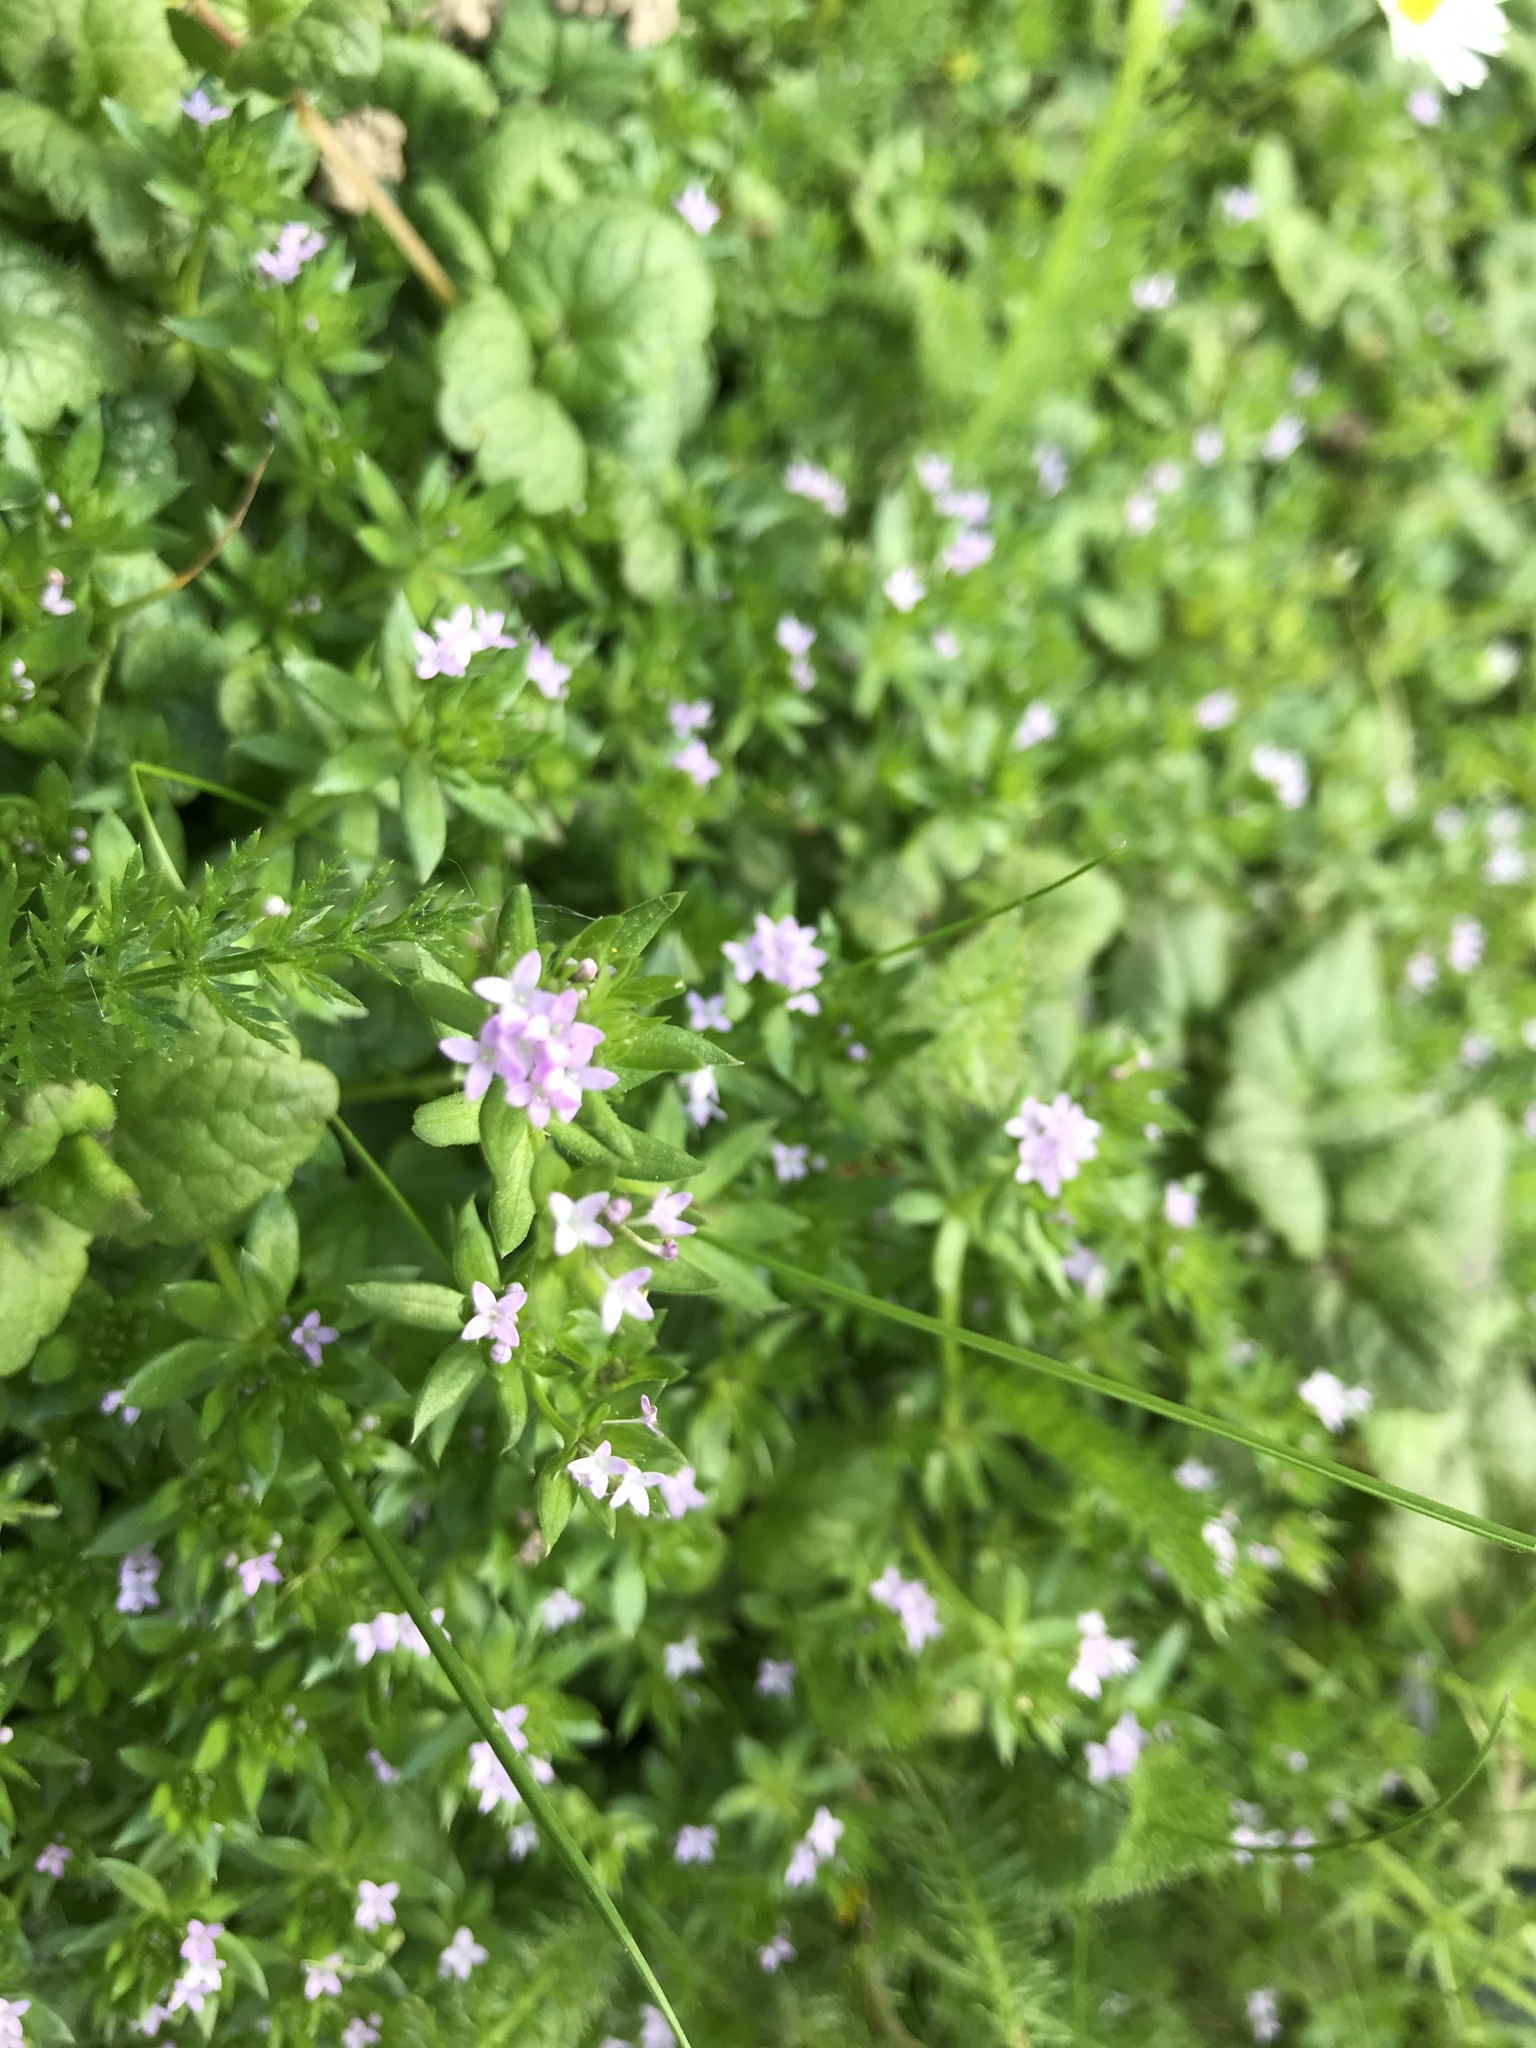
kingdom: Plantae
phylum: Tracheophyta
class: Magnoliopsida
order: Gentianales
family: Rubiaceae
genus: Sherardia
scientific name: Sherardia arvensis
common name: Field madder
